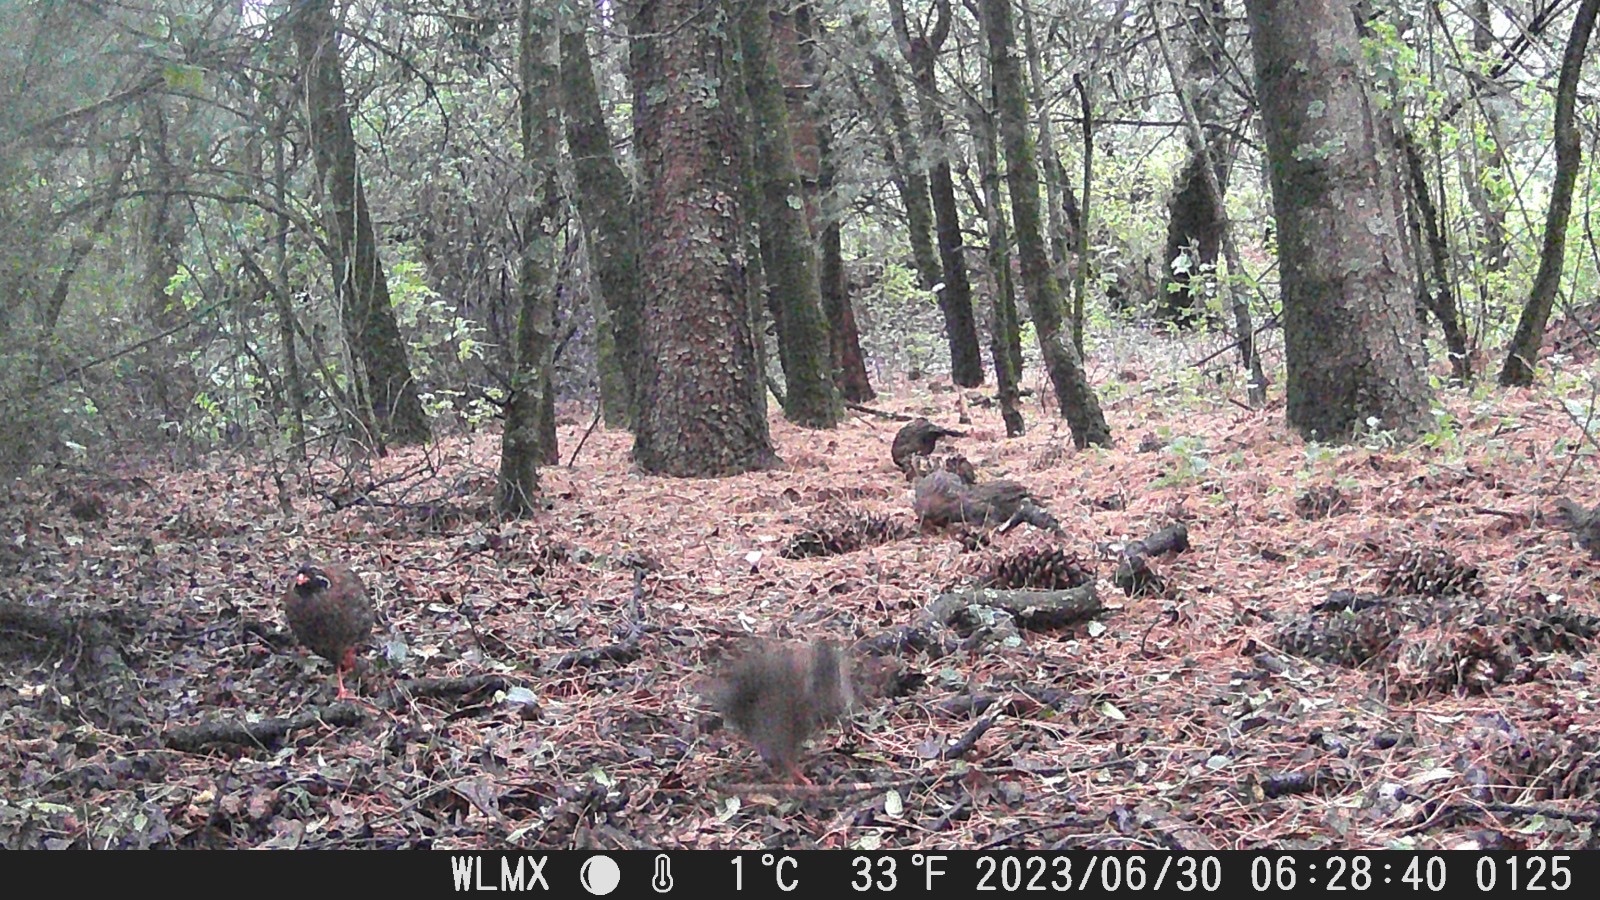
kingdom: Animalia
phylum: Chordata
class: Aves
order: Galliformes
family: Odontophoridae
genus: Dendrortyx
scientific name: Dendrortyx macroura
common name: Long-tailed wood-partridge
